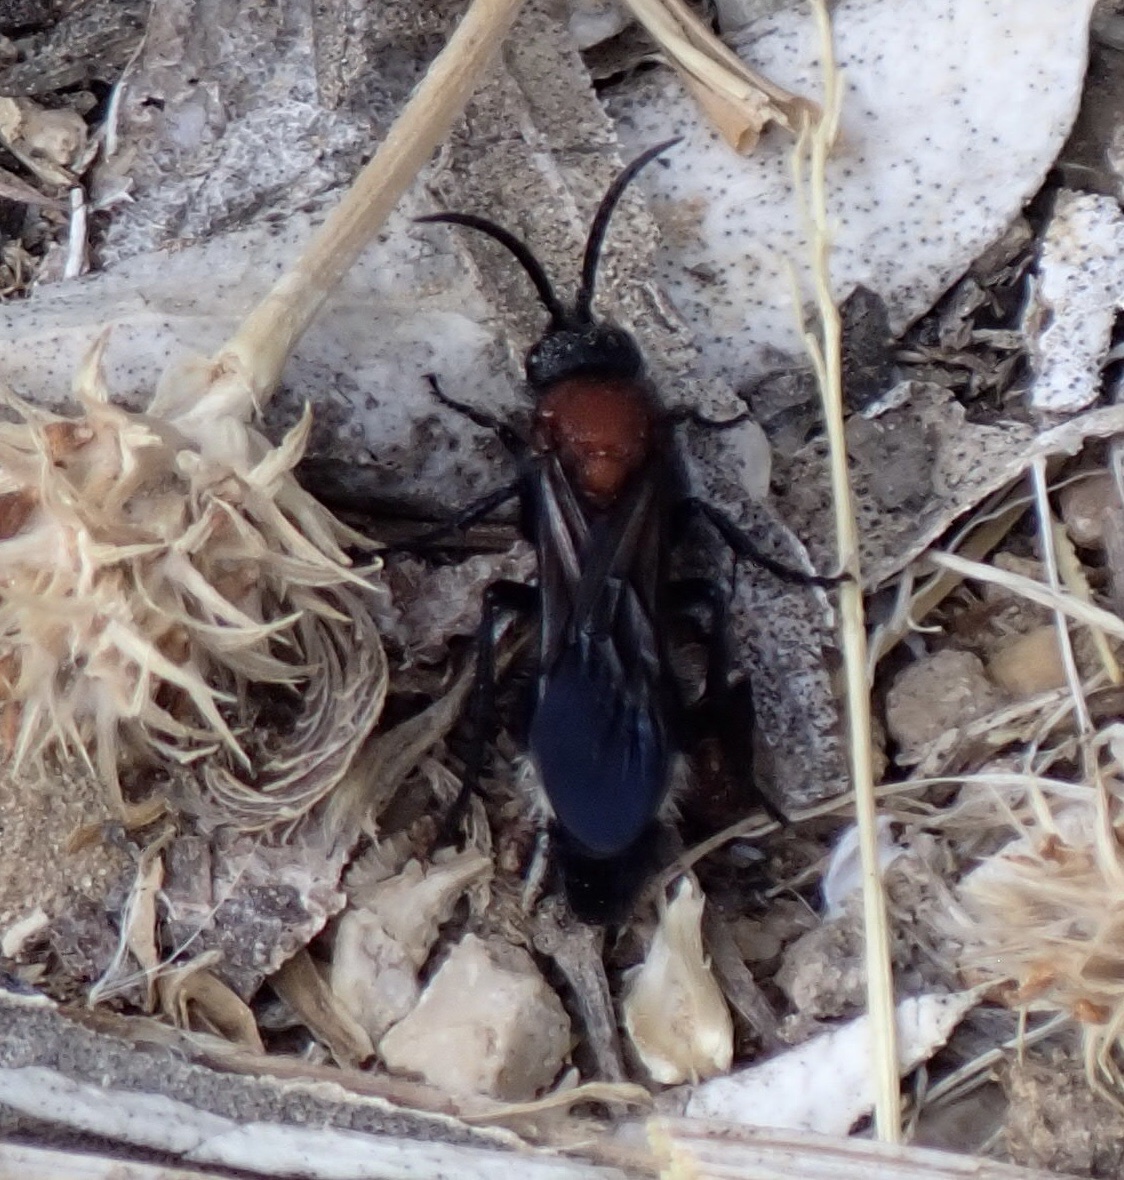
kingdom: Animalia
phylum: Arthropoda
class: Insecta
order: Hymenoptera
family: Mutillidae
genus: Dasylabris
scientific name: Dasylabris maura
